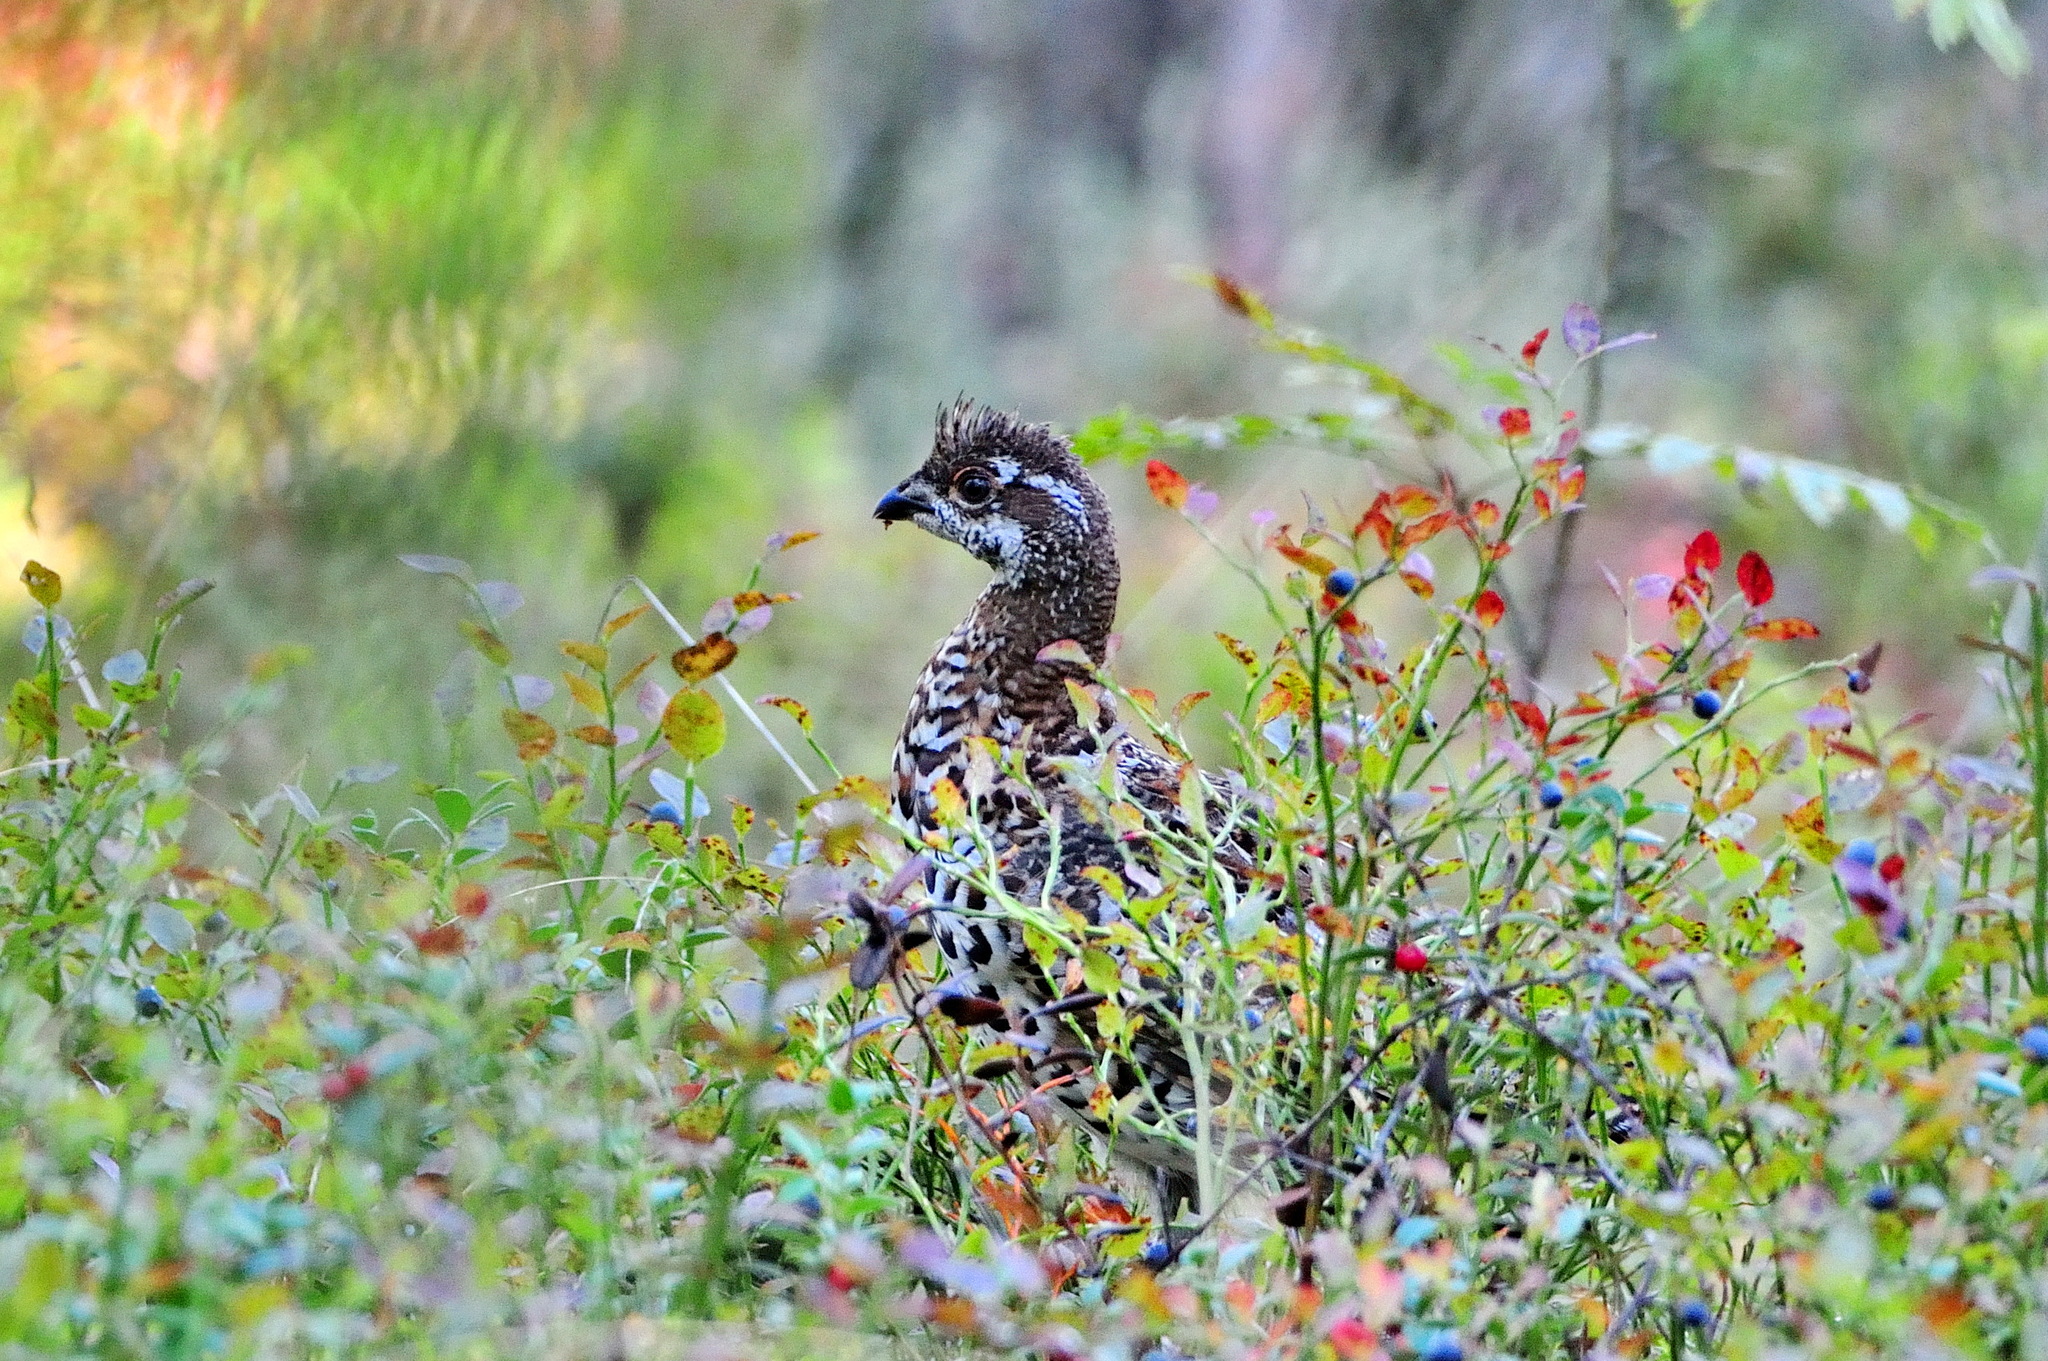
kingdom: Animalia
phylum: Chordata
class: Aves
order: Galliformes
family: Phasianidae
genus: Tetrastes
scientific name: Tetrastes bonasia
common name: Hazel grouse
